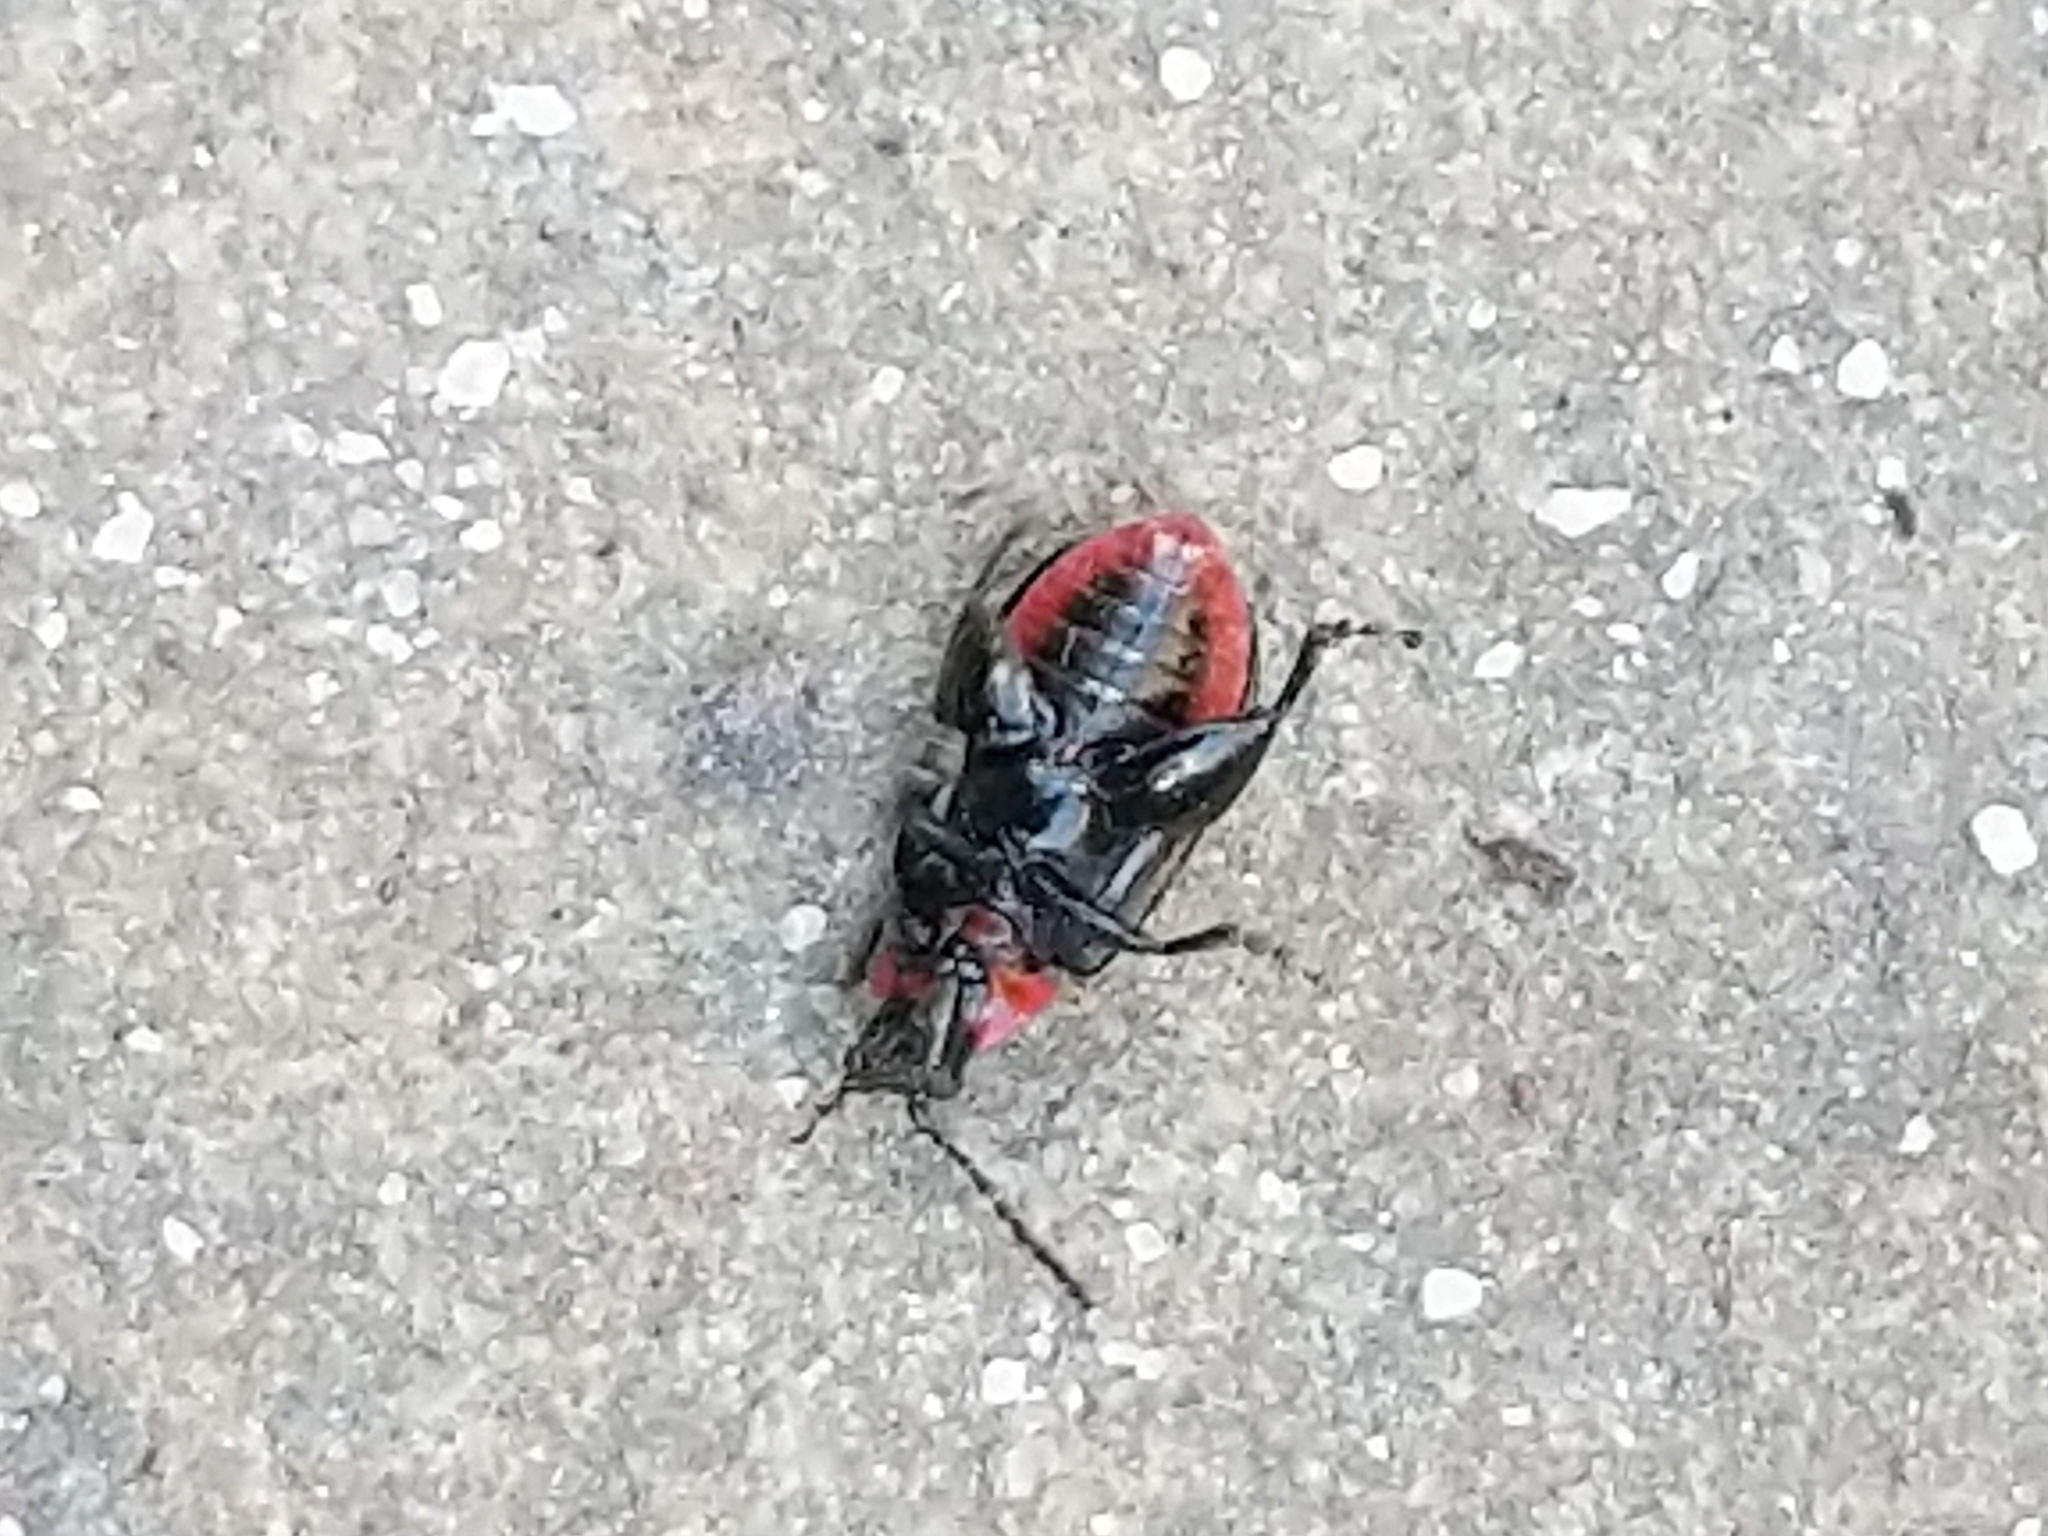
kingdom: Animalia
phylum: Arthropoda
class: Insecta
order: Coleoptera
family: Chrysomelidae
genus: Kuschelina
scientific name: Kuschelina vians
